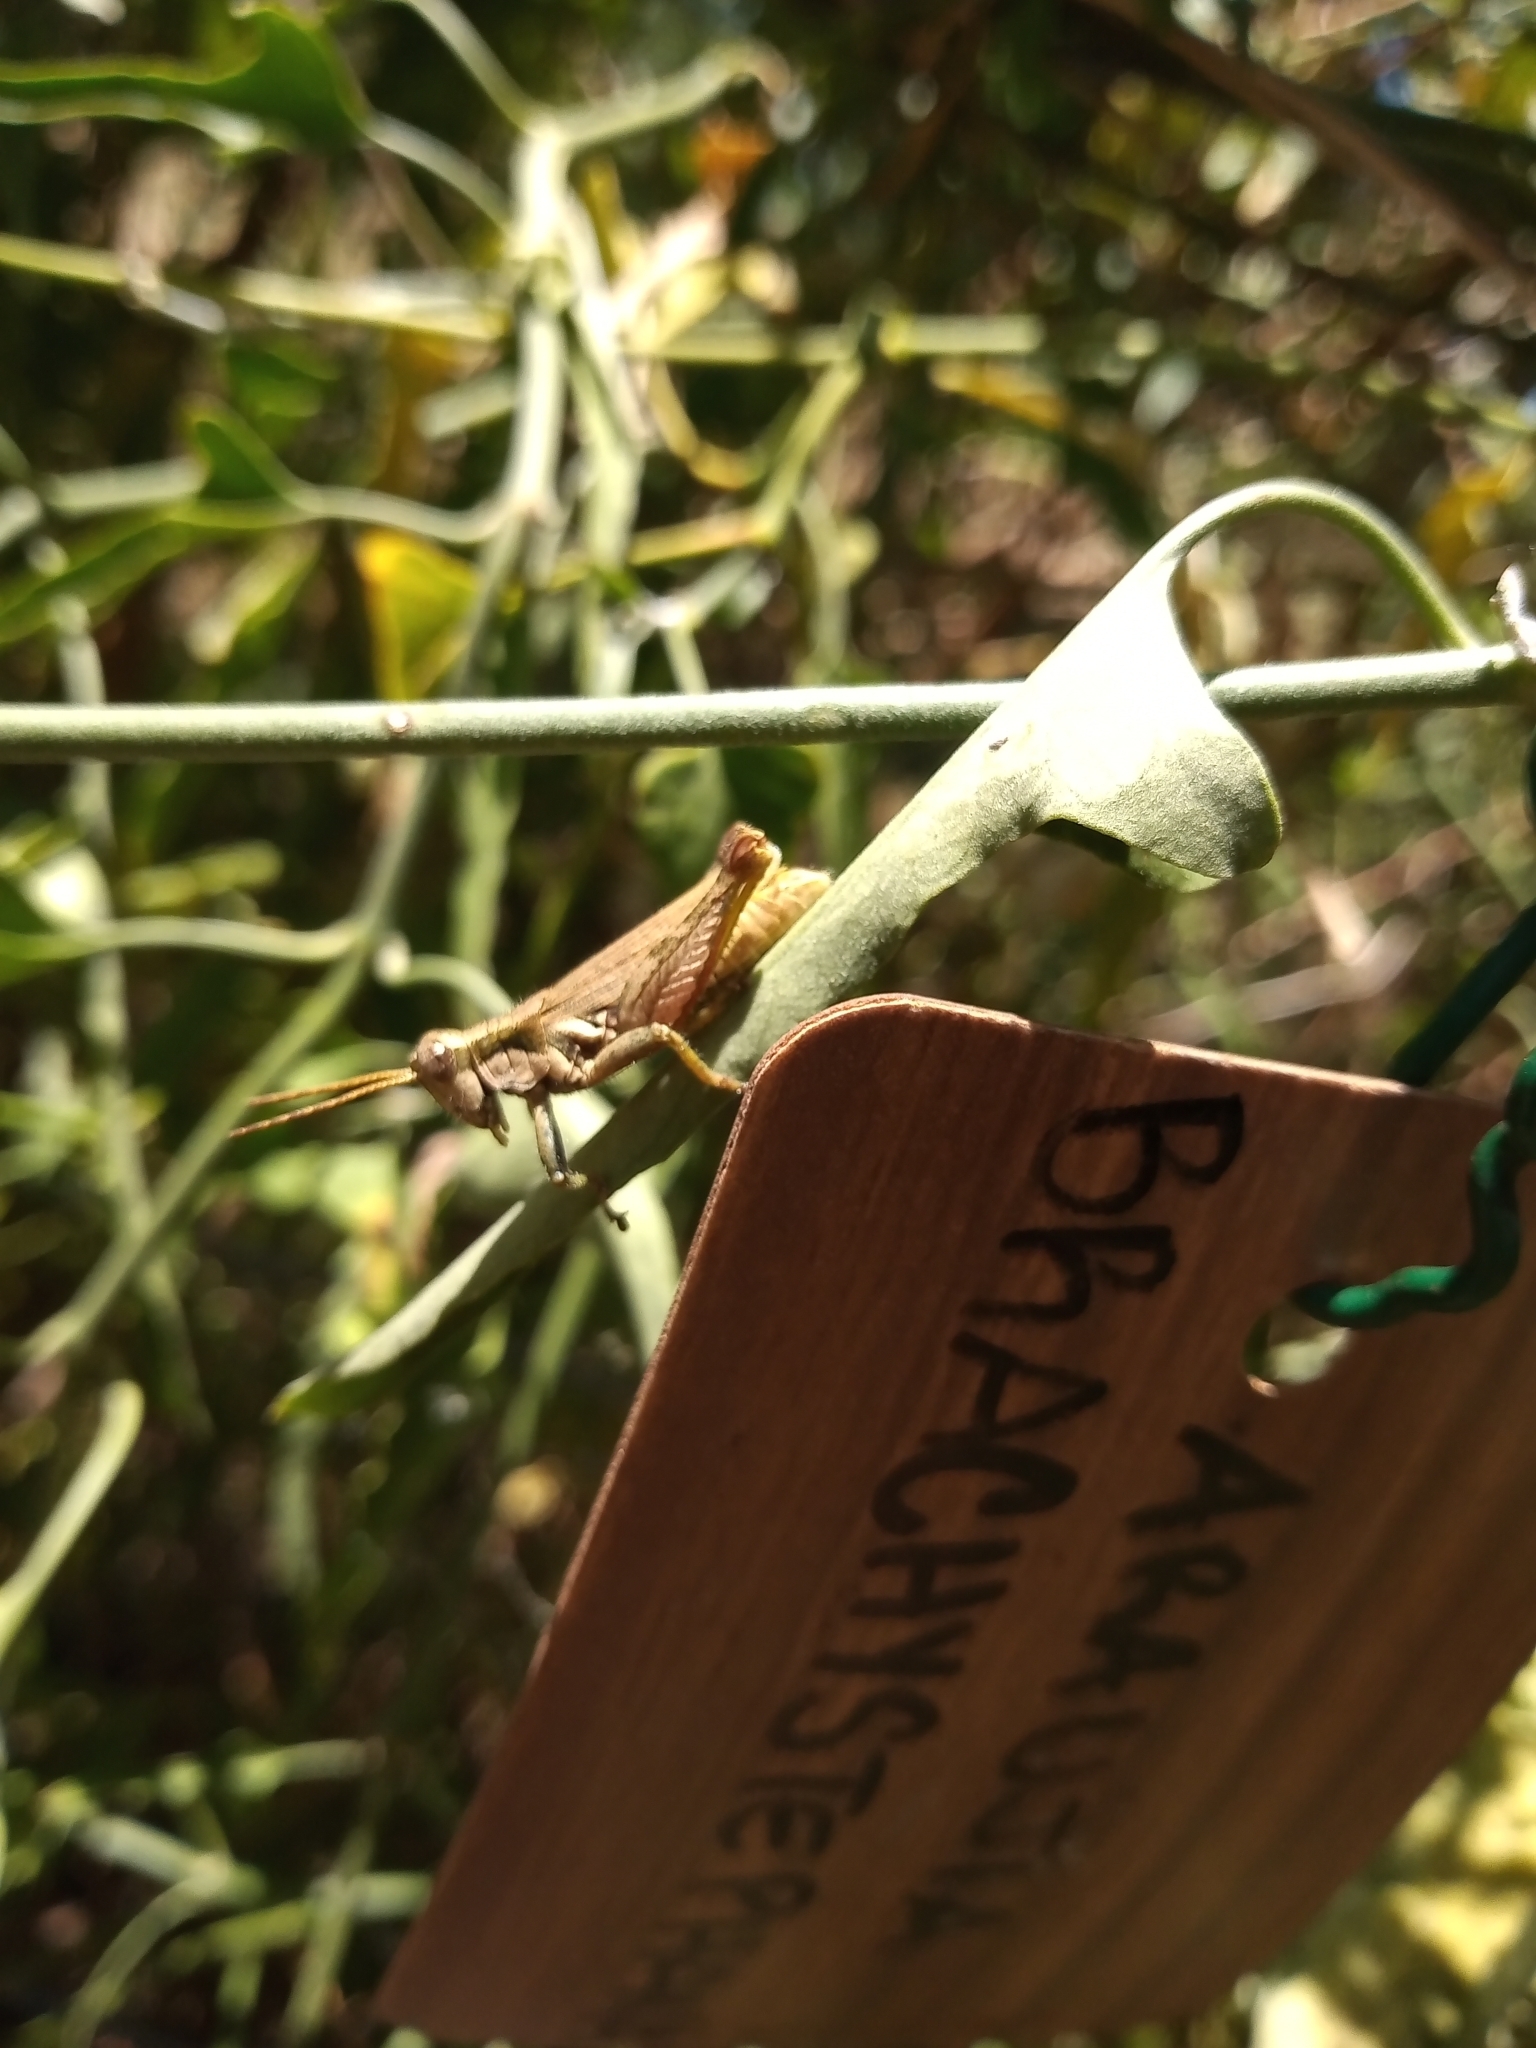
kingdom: Animalia
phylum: Arthropoda
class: Insecta
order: Orthoptera
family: Acrididae
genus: Ronderosia
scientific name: Ronderosia bergii
